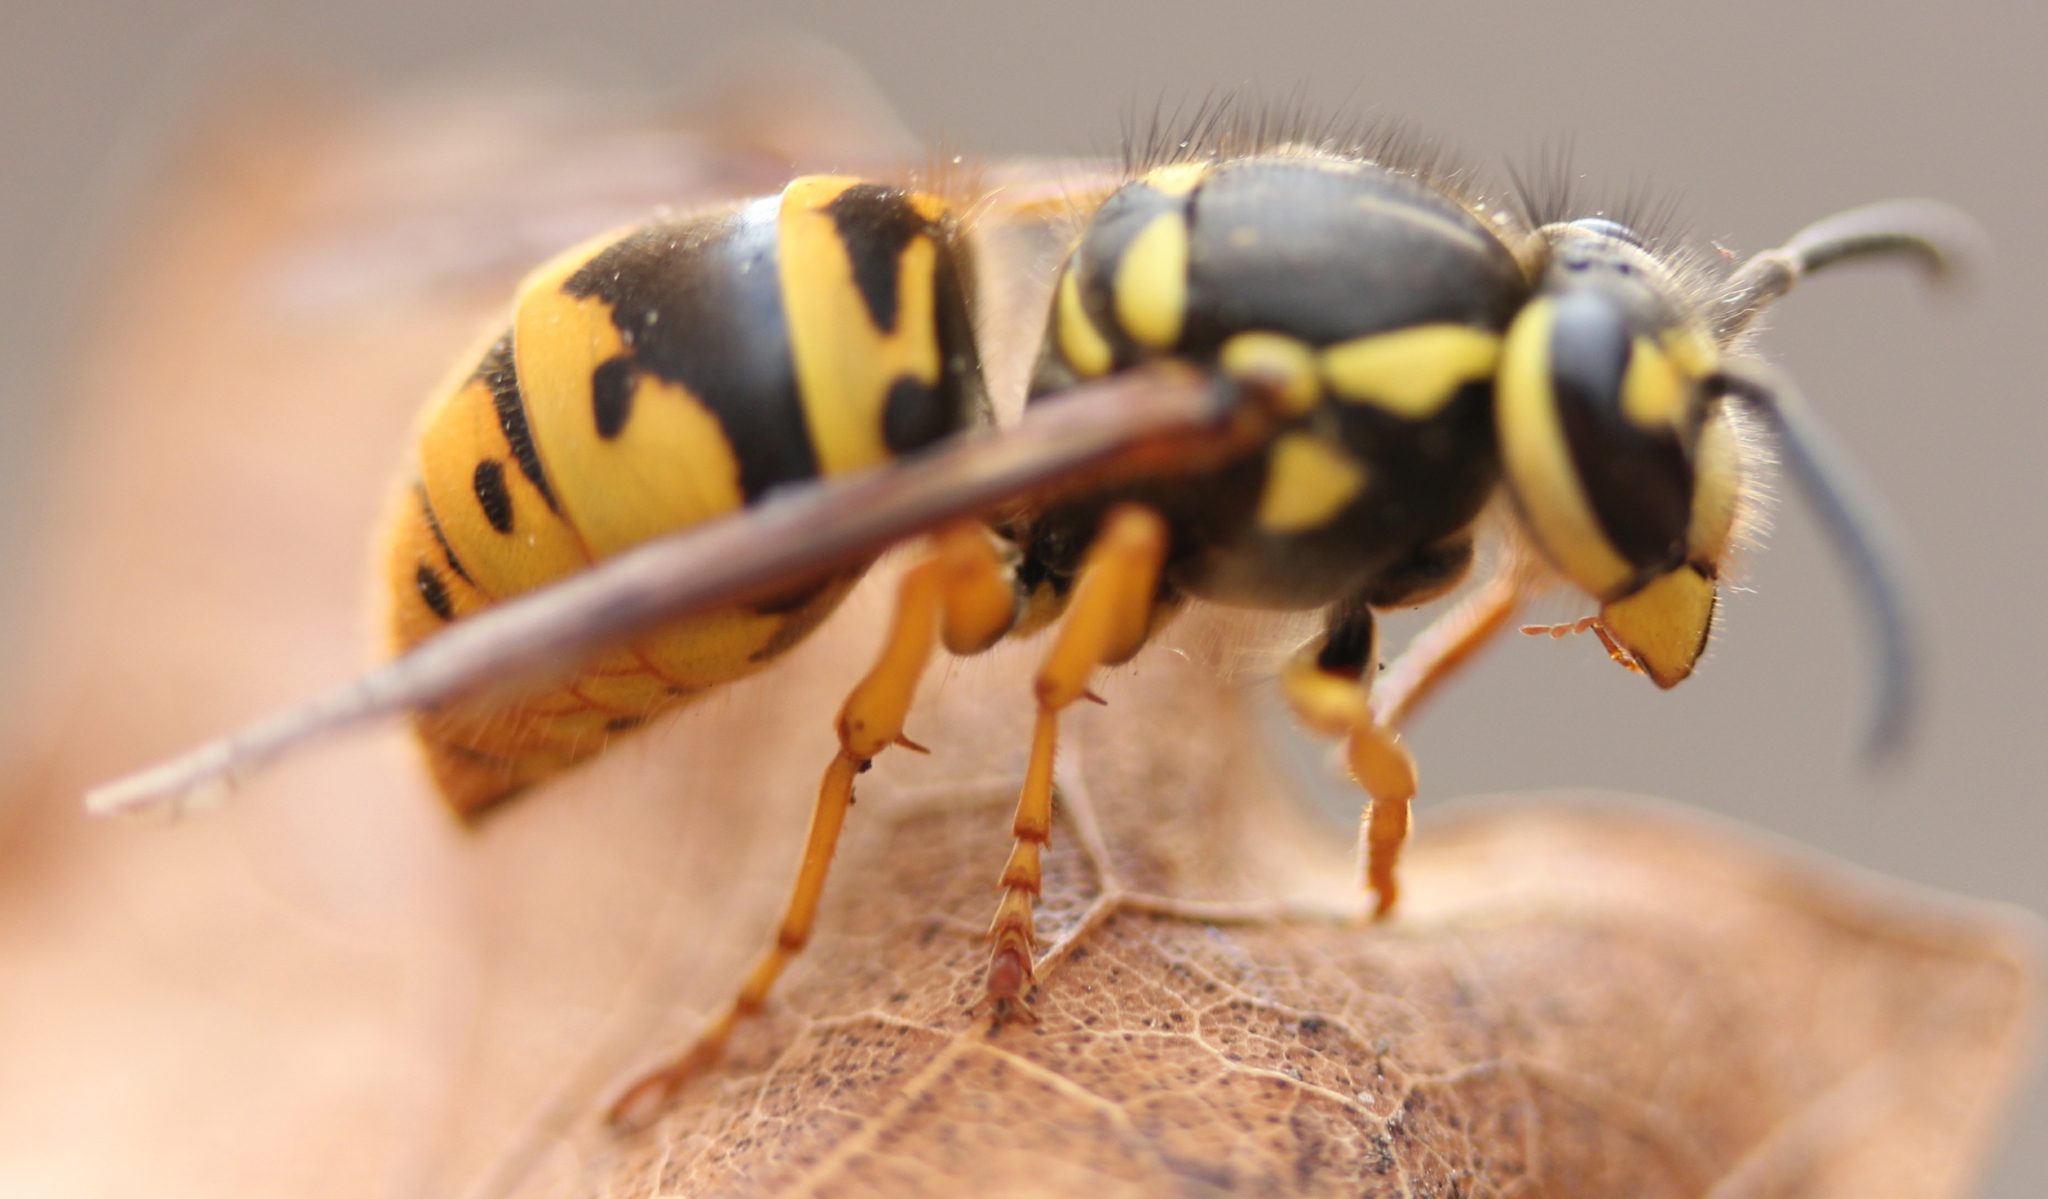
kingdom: Animalia
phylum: Arthropoda
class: Insecta
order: Hymenoptera
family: Vespidae
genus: Vespula
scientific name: Vespula maculifrons
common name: Eastern yellowjacket
